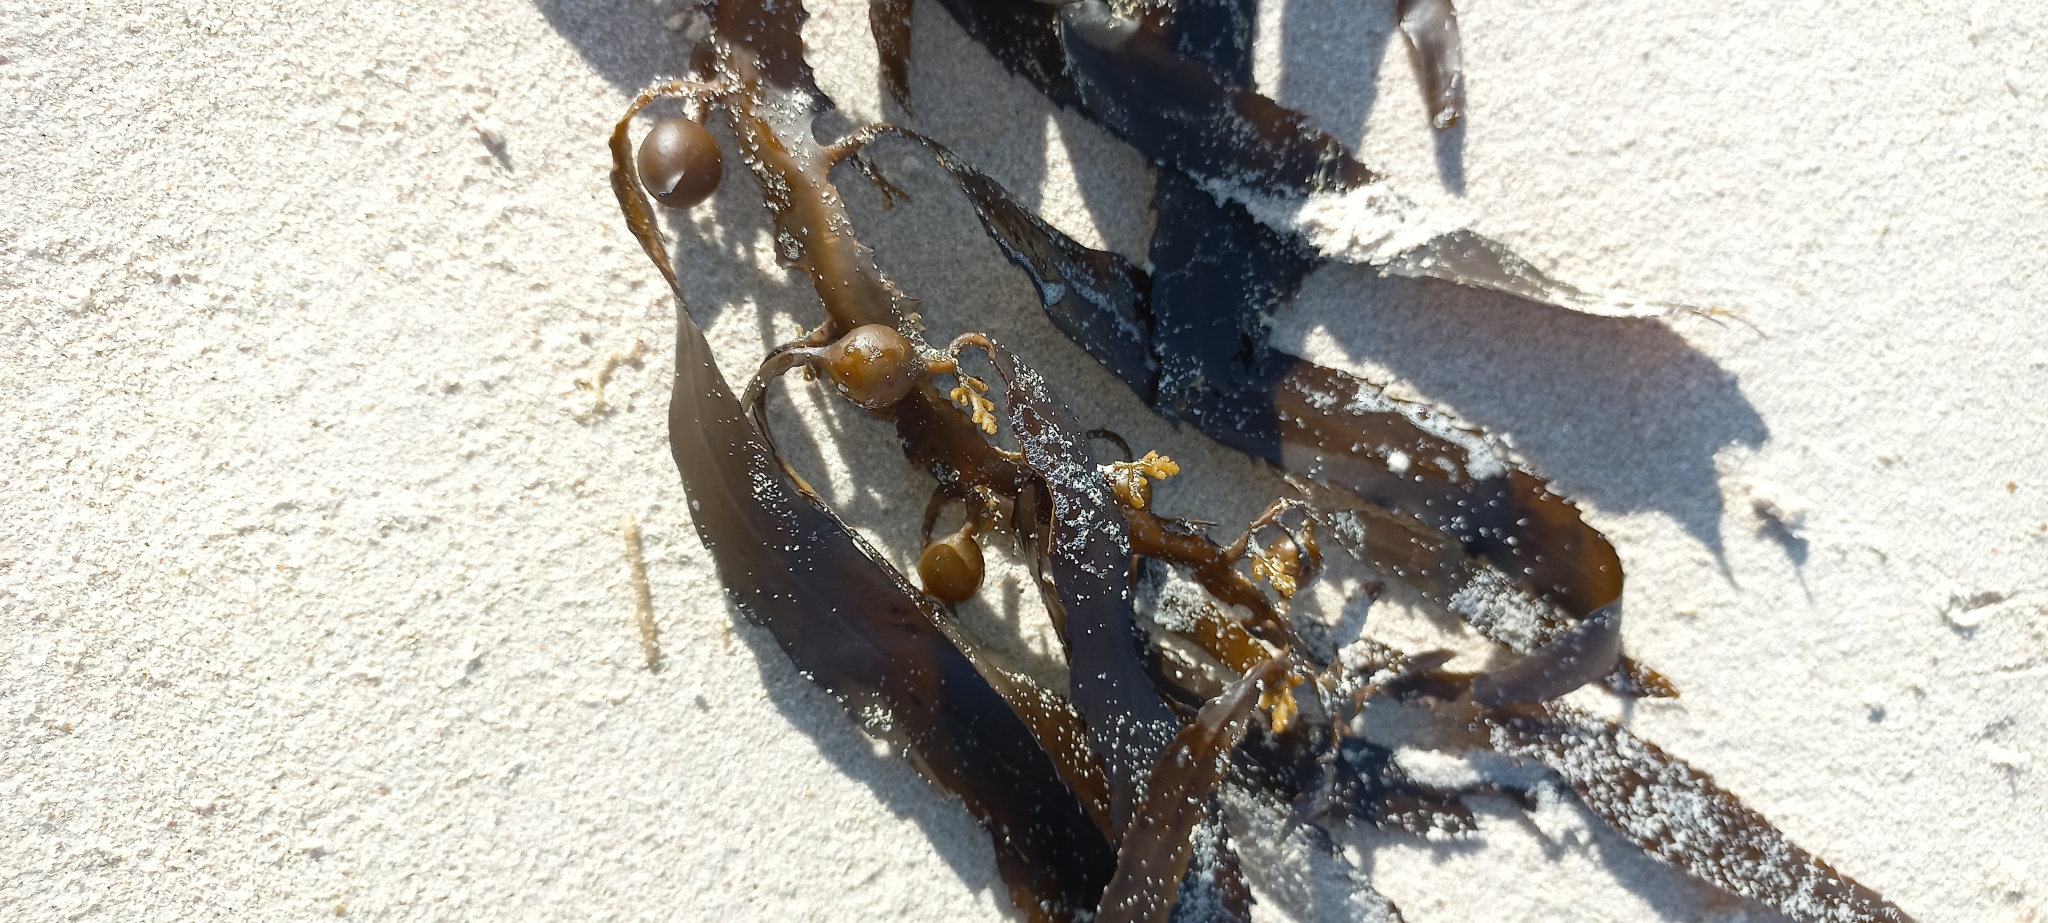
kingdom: Chromista
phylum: Ochrophyta
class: Phaeophyceae
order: Fucales
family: Sargassaceae
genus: Anthophycus
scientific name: Anthophycus
